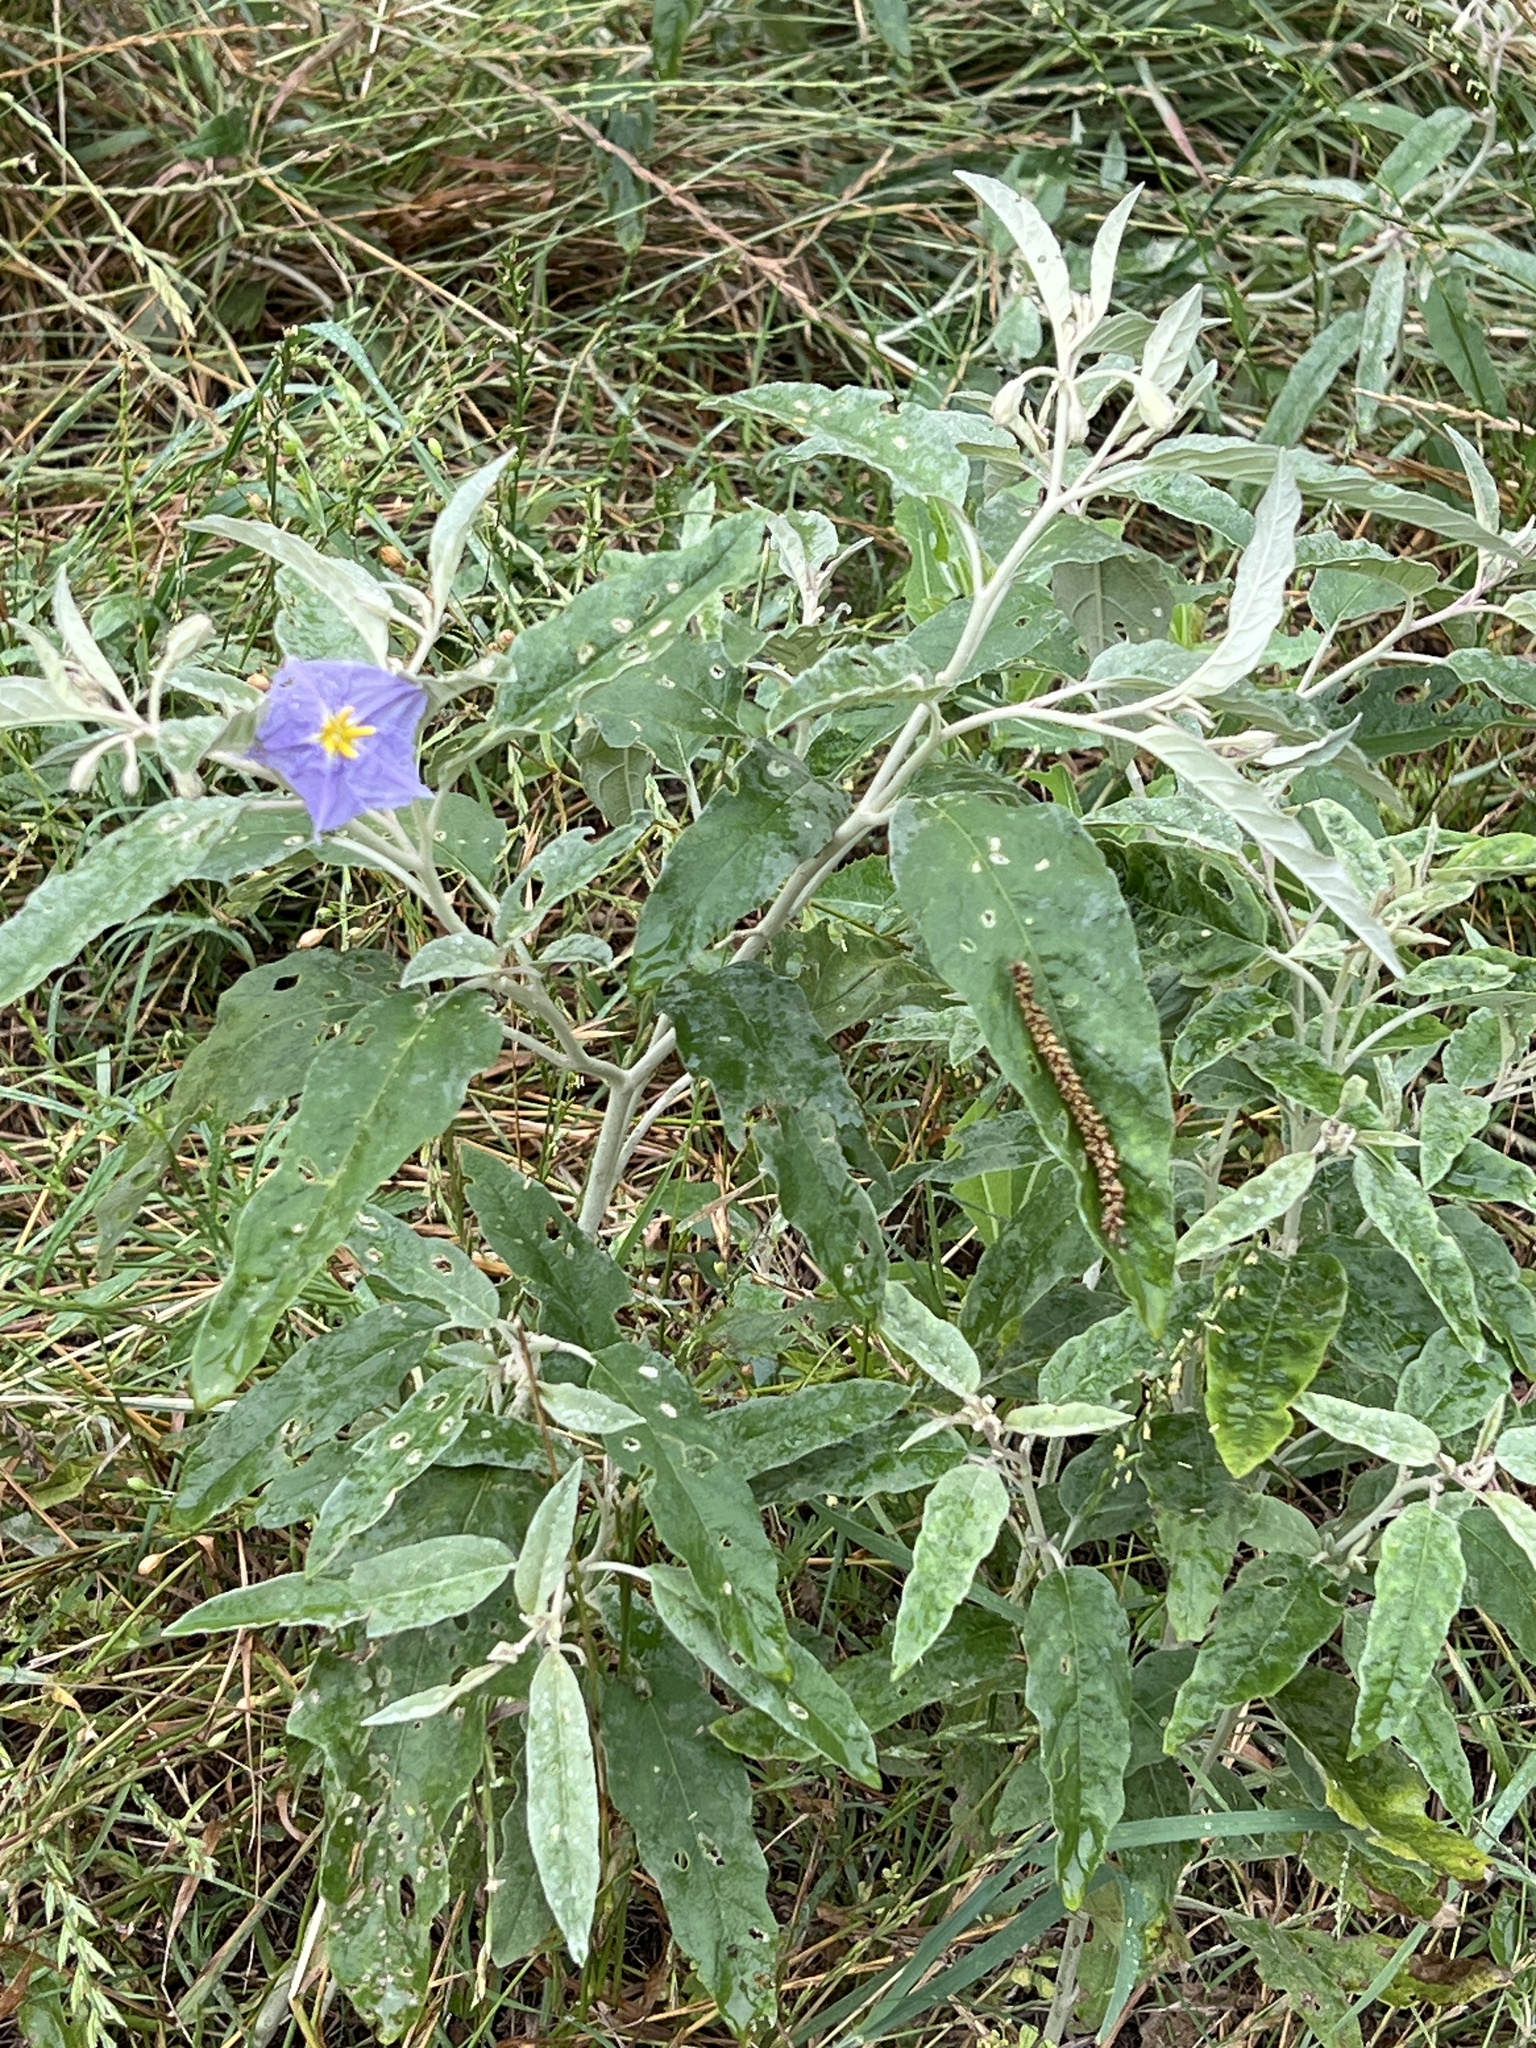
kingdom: Plantae
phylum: Tracheophyta
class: Magnoliopsida
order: Solanales
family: Solanaceae
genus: Solanum
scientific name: Solanum elaeagnifolium
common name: Silverleaf nightshade
